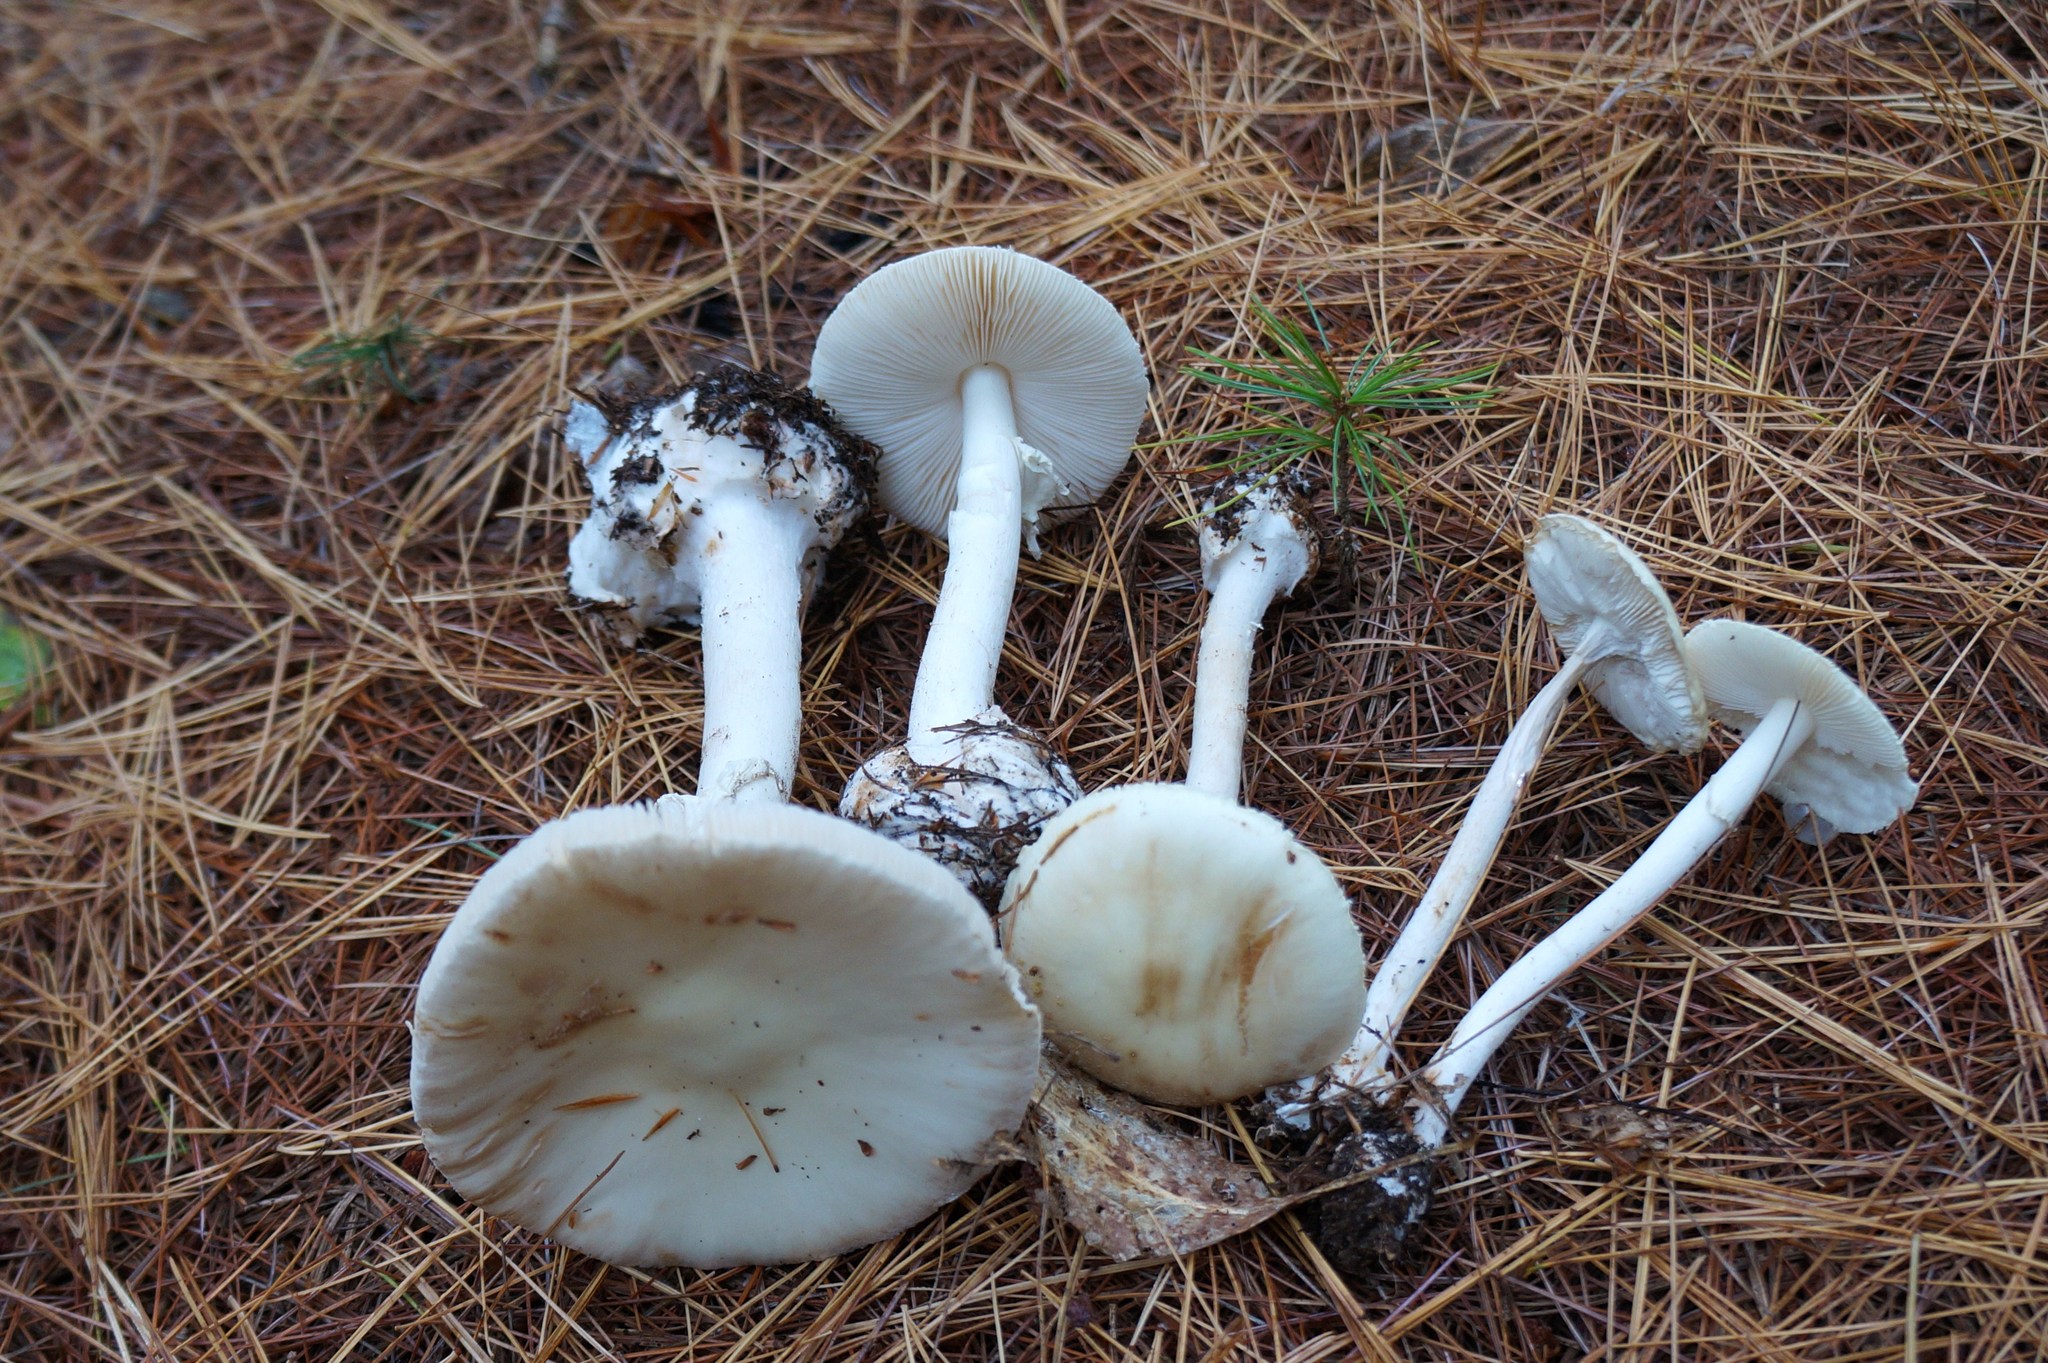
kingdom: Fungi
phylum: Basidiomycota
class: Agaricomycetes
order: Agaricales
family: Amanitaceae
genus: Amanita
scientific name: Amanita lavendula
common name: Coker's lavender staining amanita
